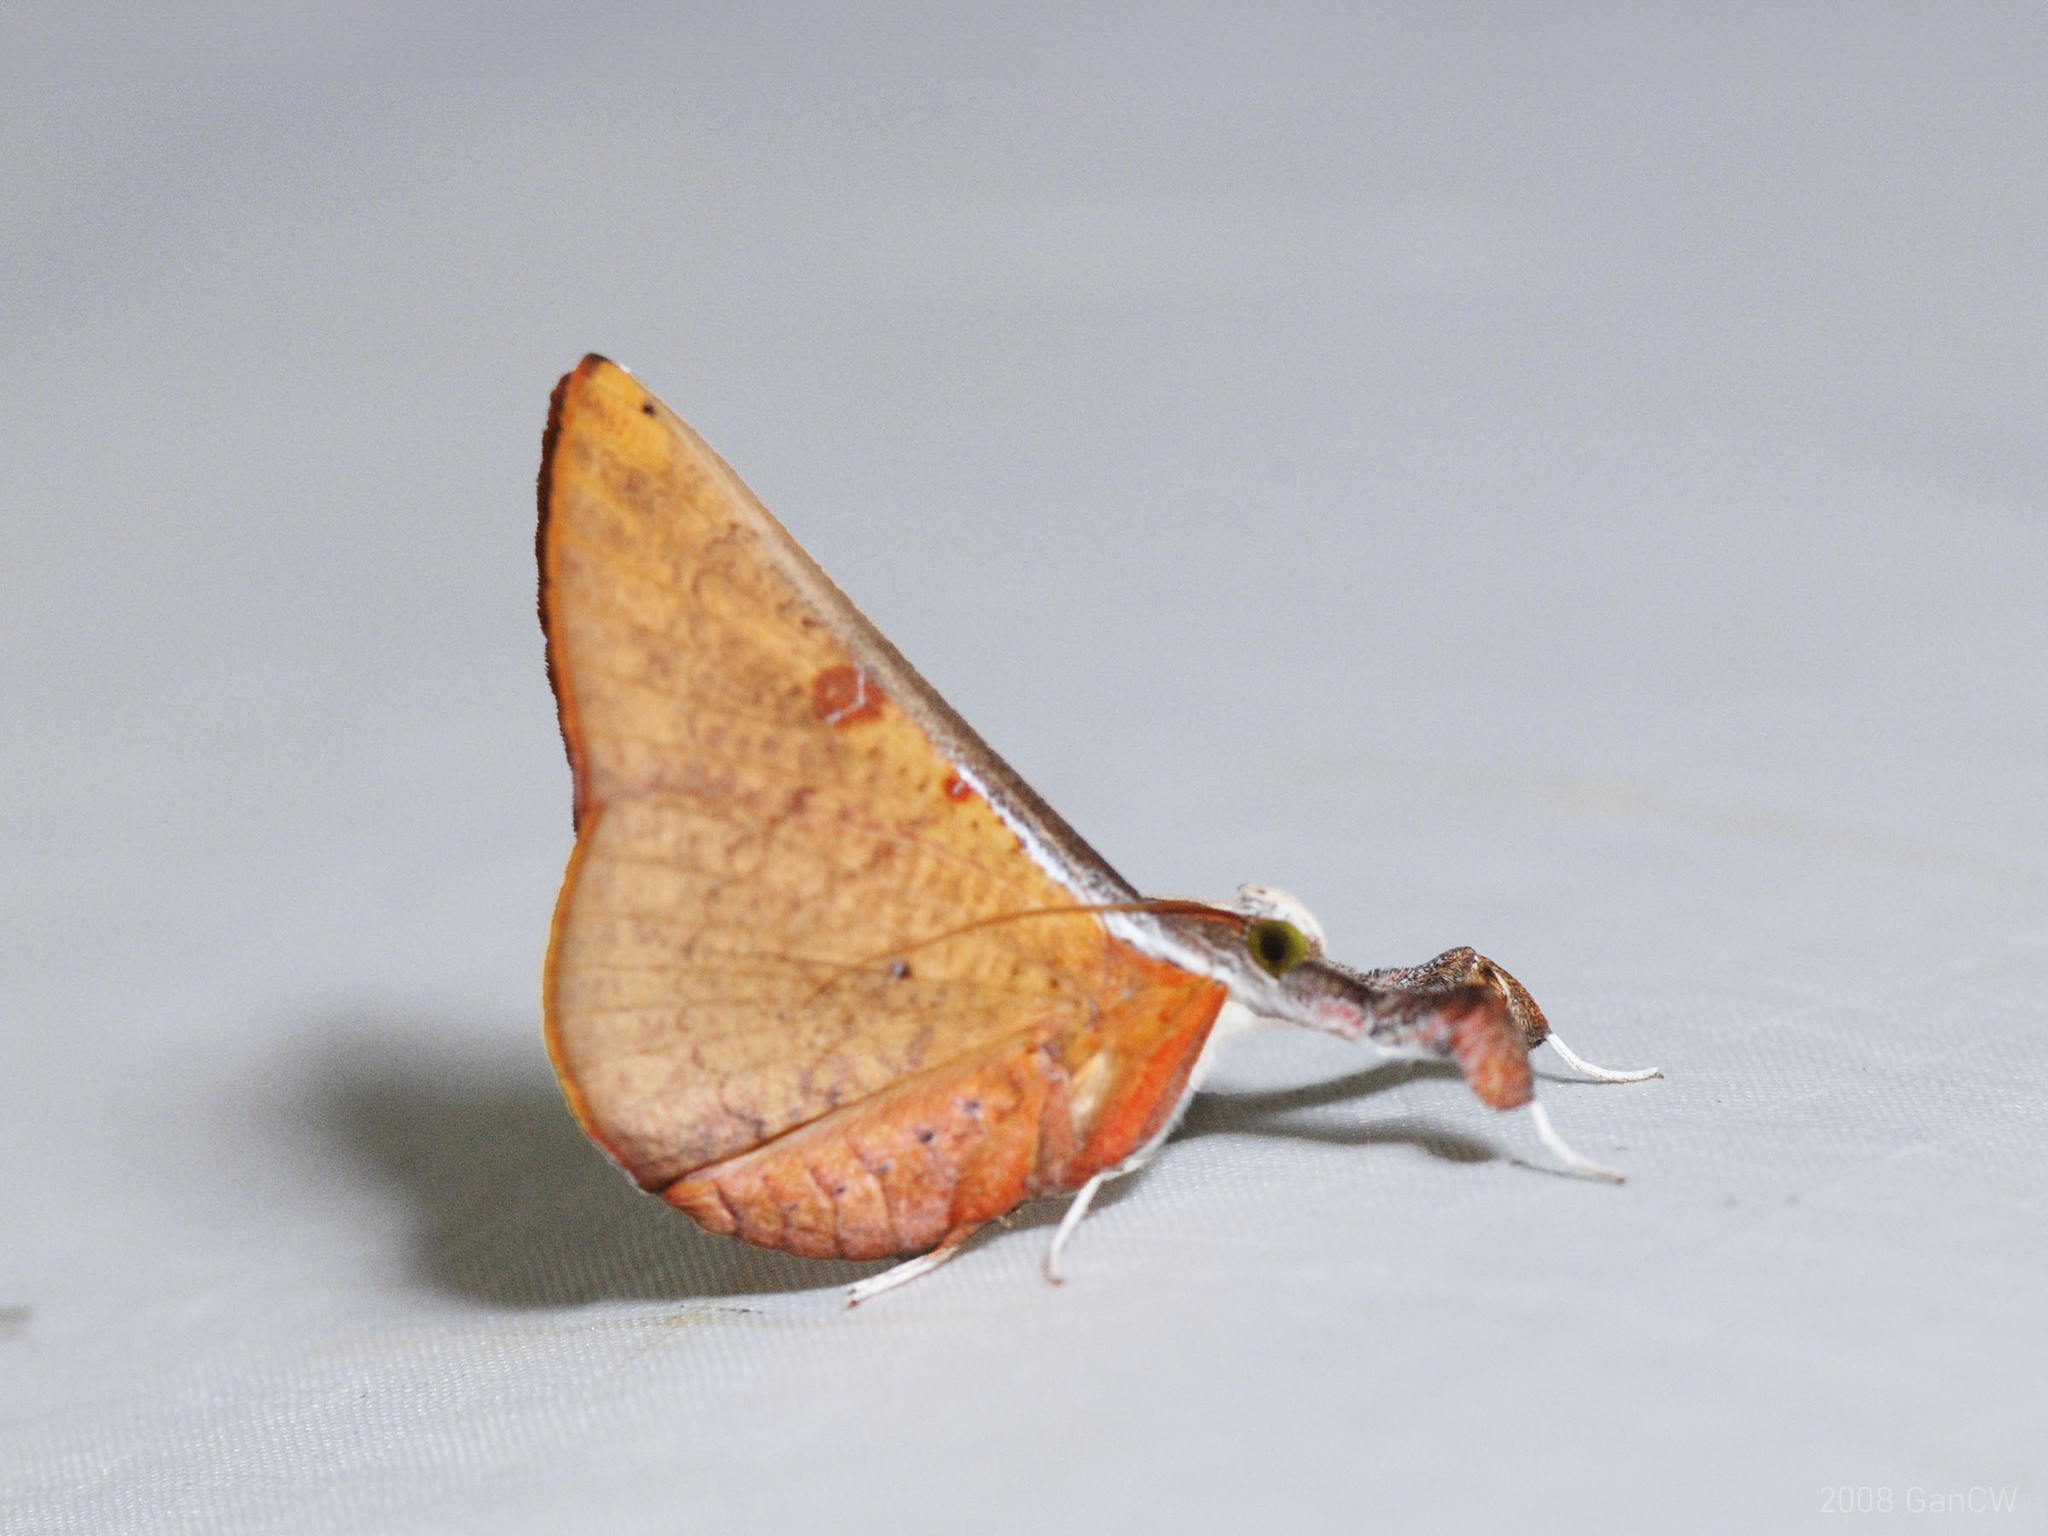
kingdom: Animalia
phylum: Arthropoda
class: Insecta
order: Lepidoptera
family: Erebidae
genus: Bematha
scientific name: Bematha extensa
